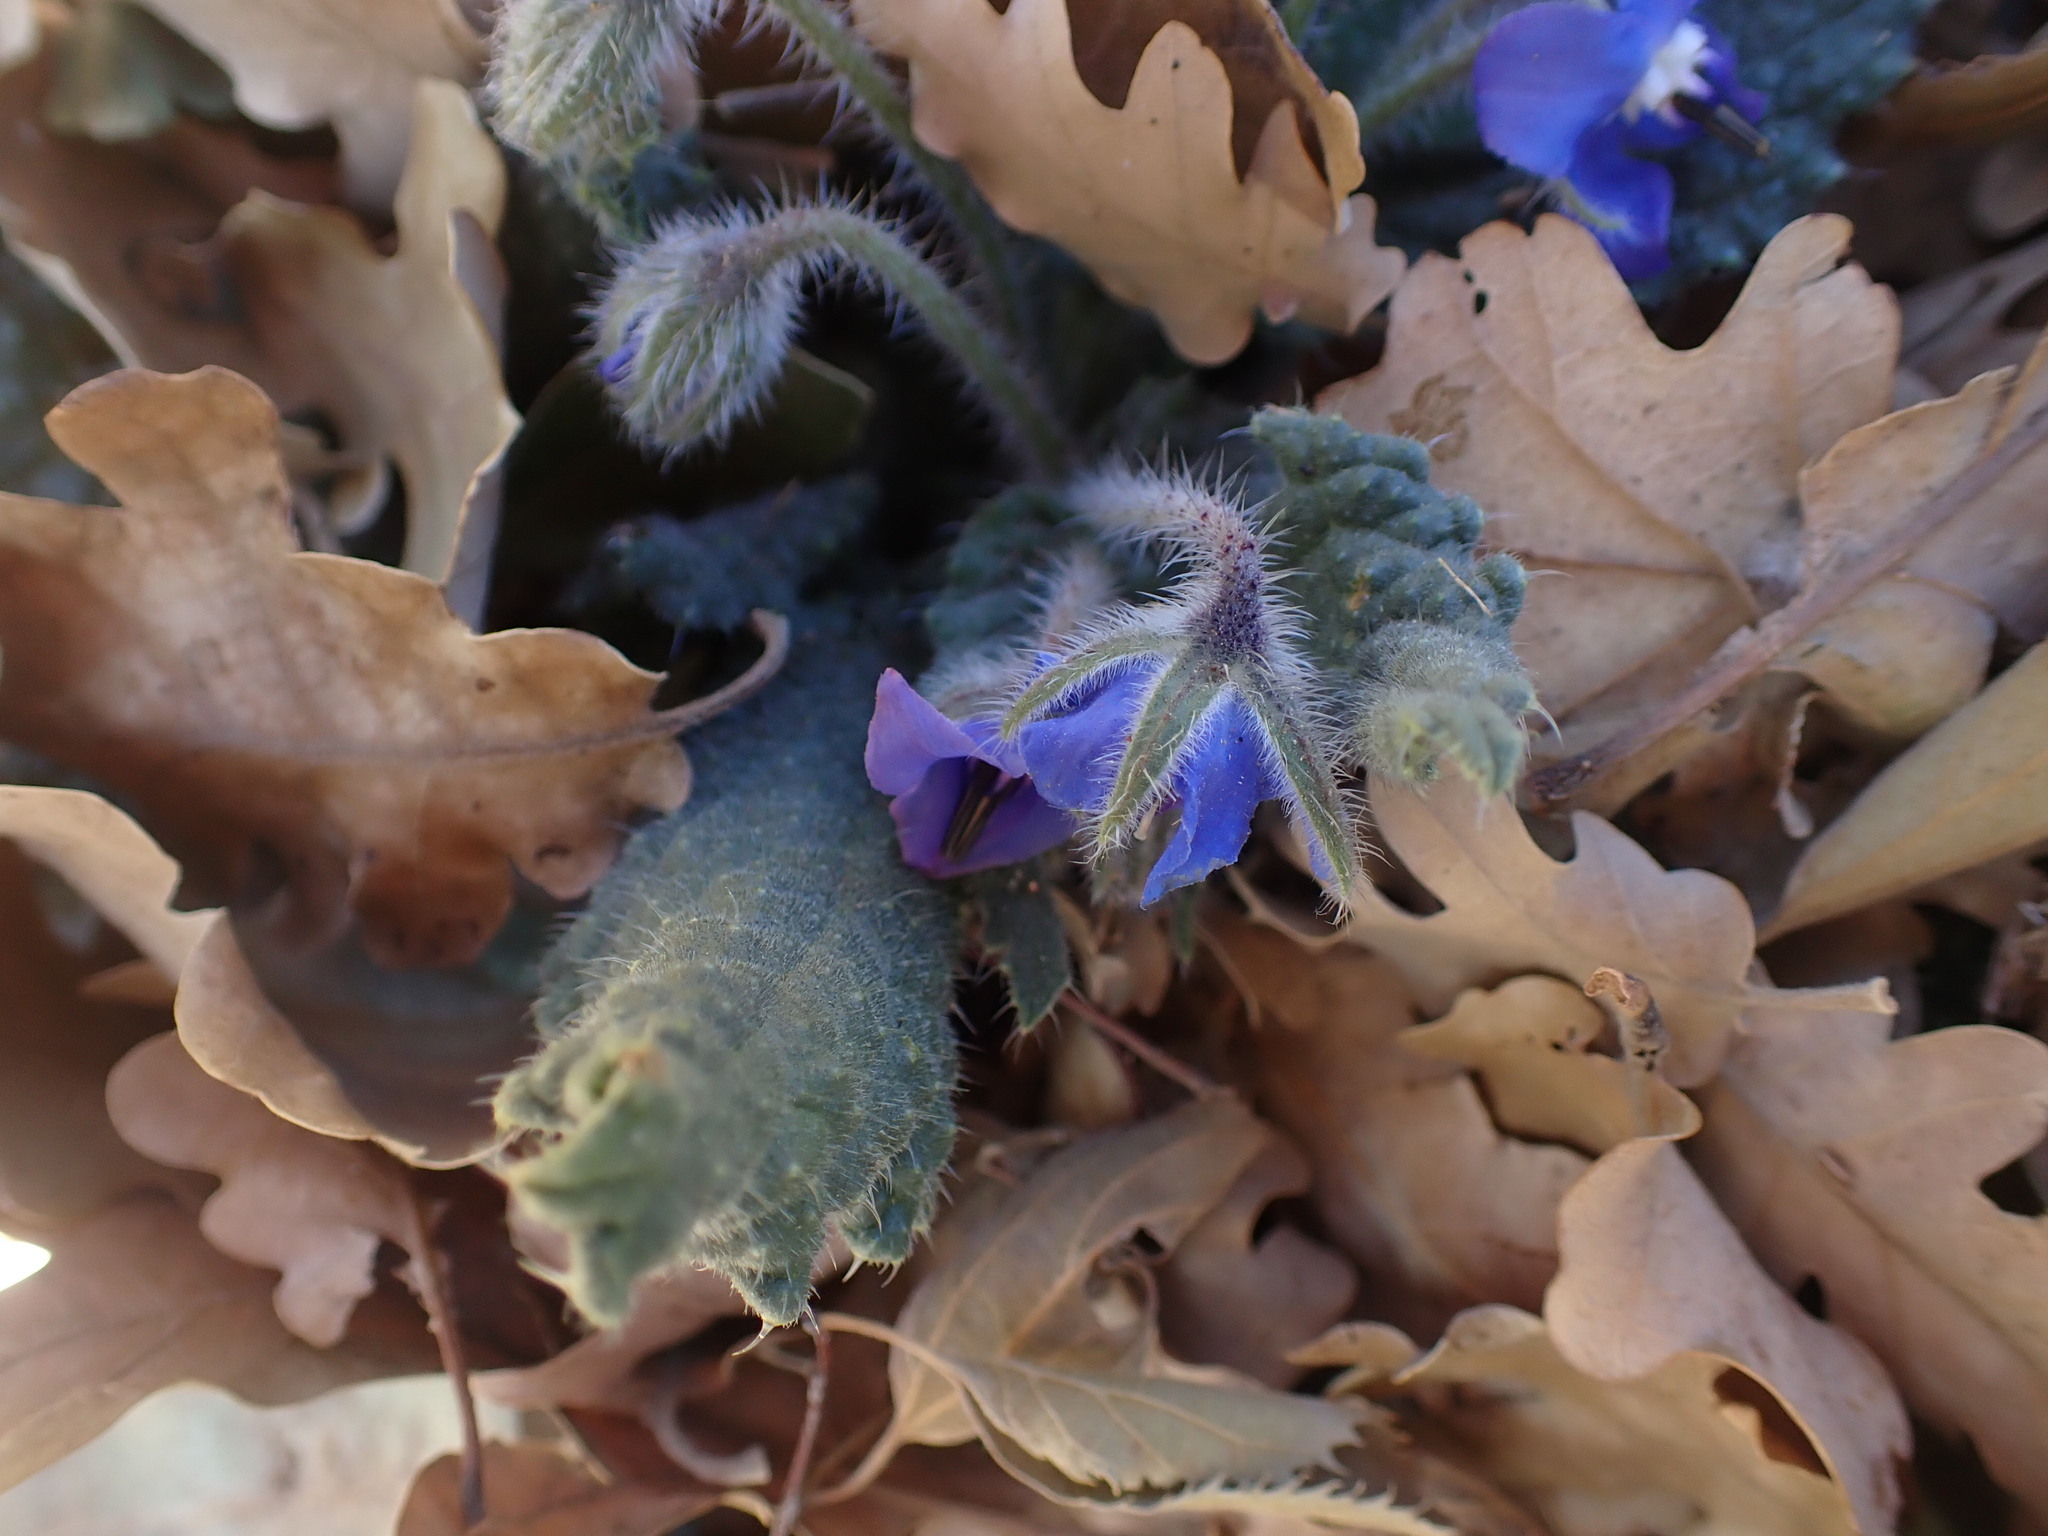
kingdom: Plantae
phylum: Tracheophyta
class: Magnoliopsida
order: Boraginales
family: Boraginaceae
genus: Borago
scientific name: Borago officinalis
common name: Borage
